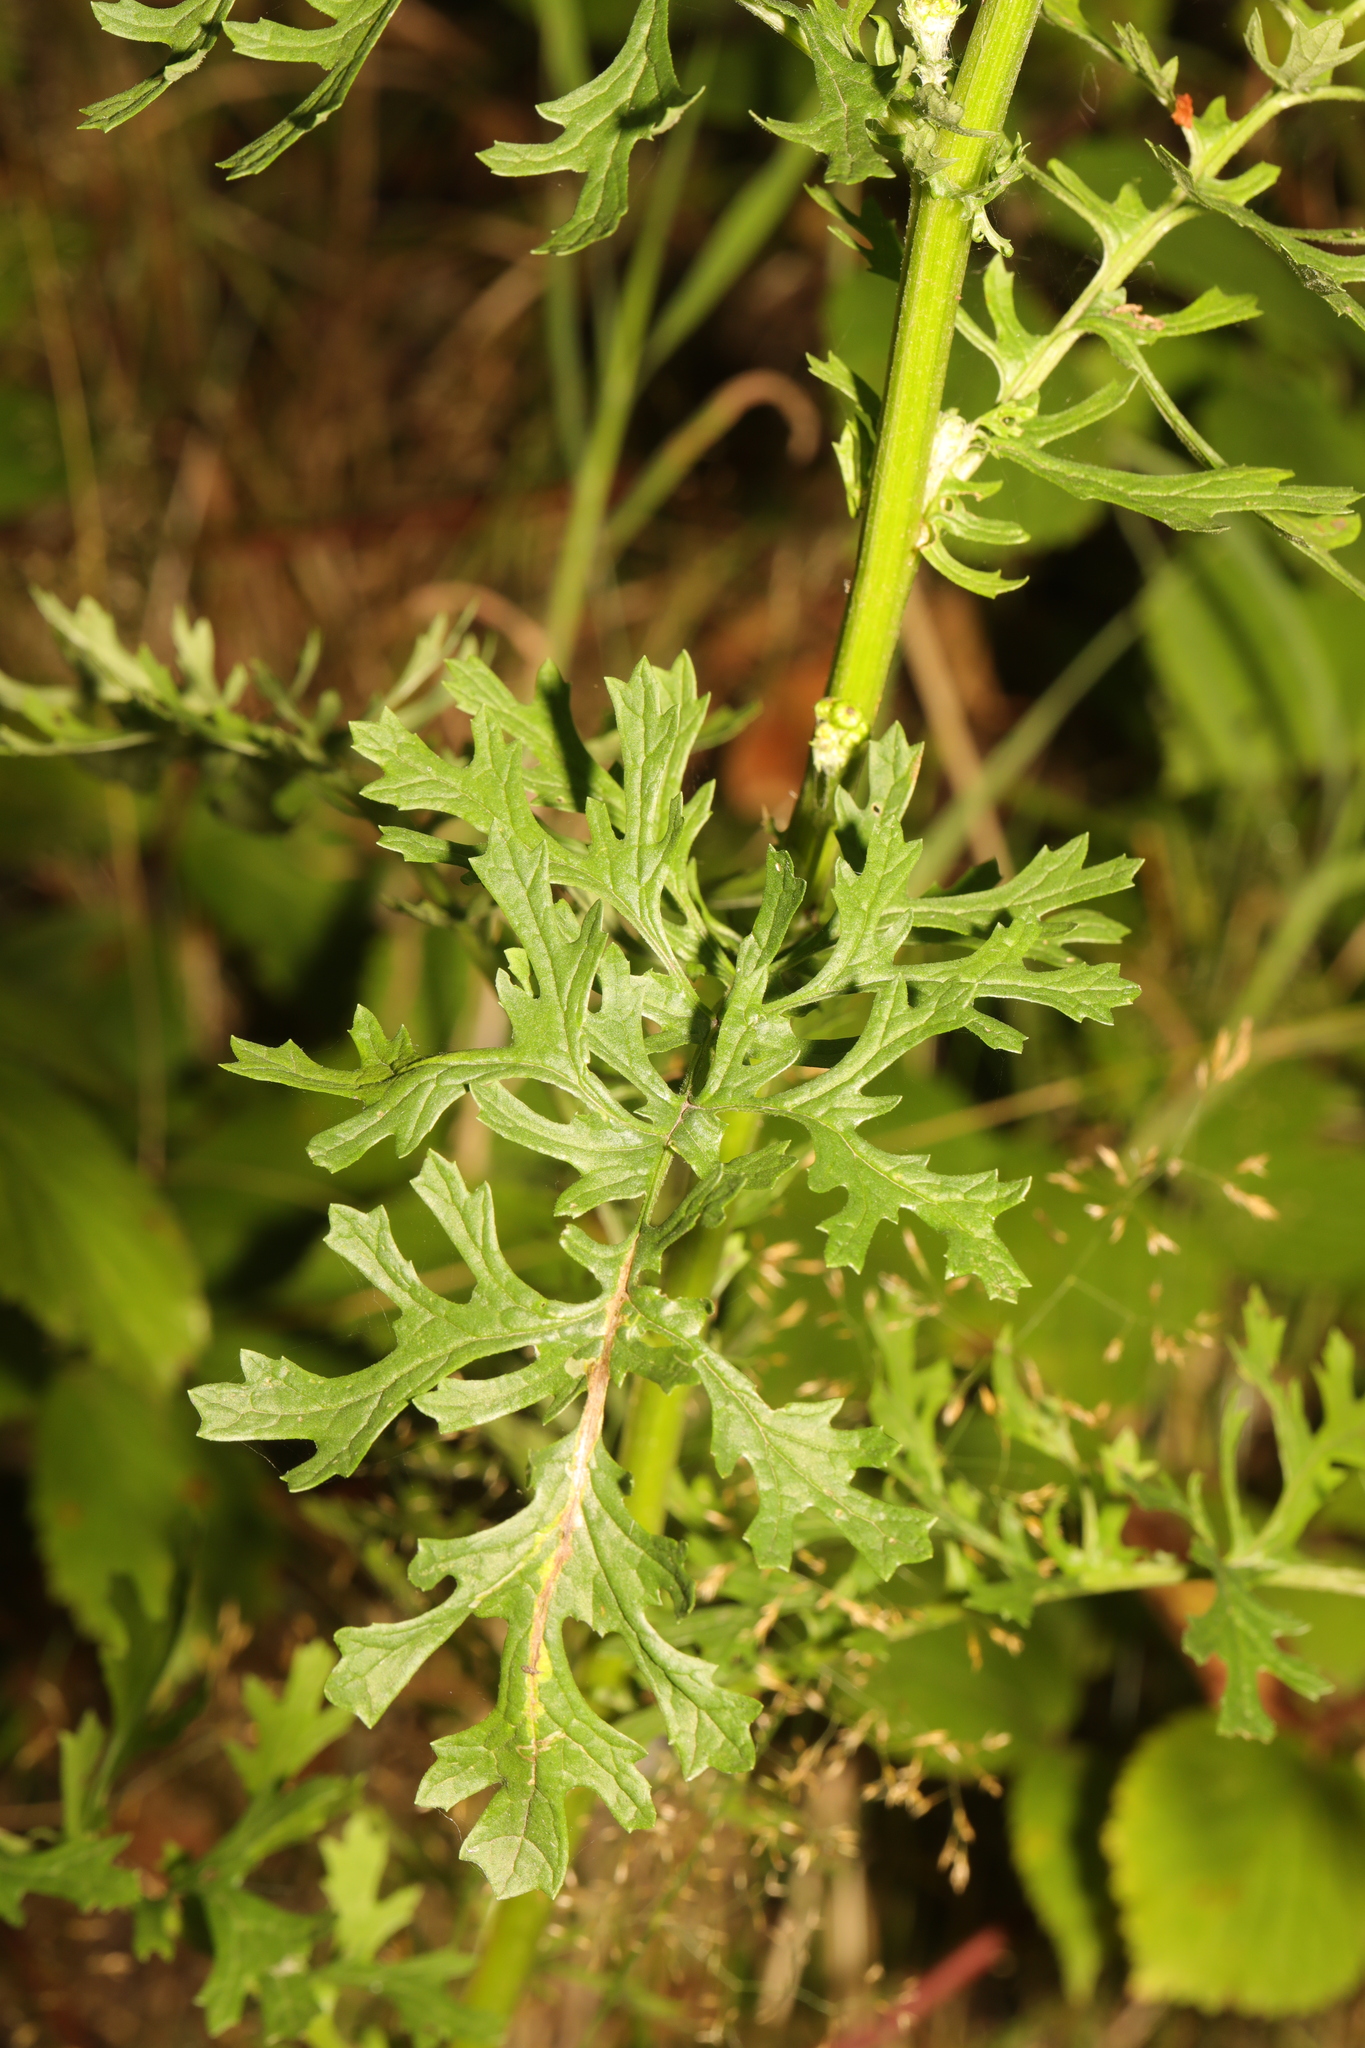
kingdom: Plantae
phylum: Tracheophyta
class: Magnoliopsida
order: Asterales
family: Asteraceae
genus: Jacobaea
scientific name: Jacobaea vulgaris
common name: Stinking willie
